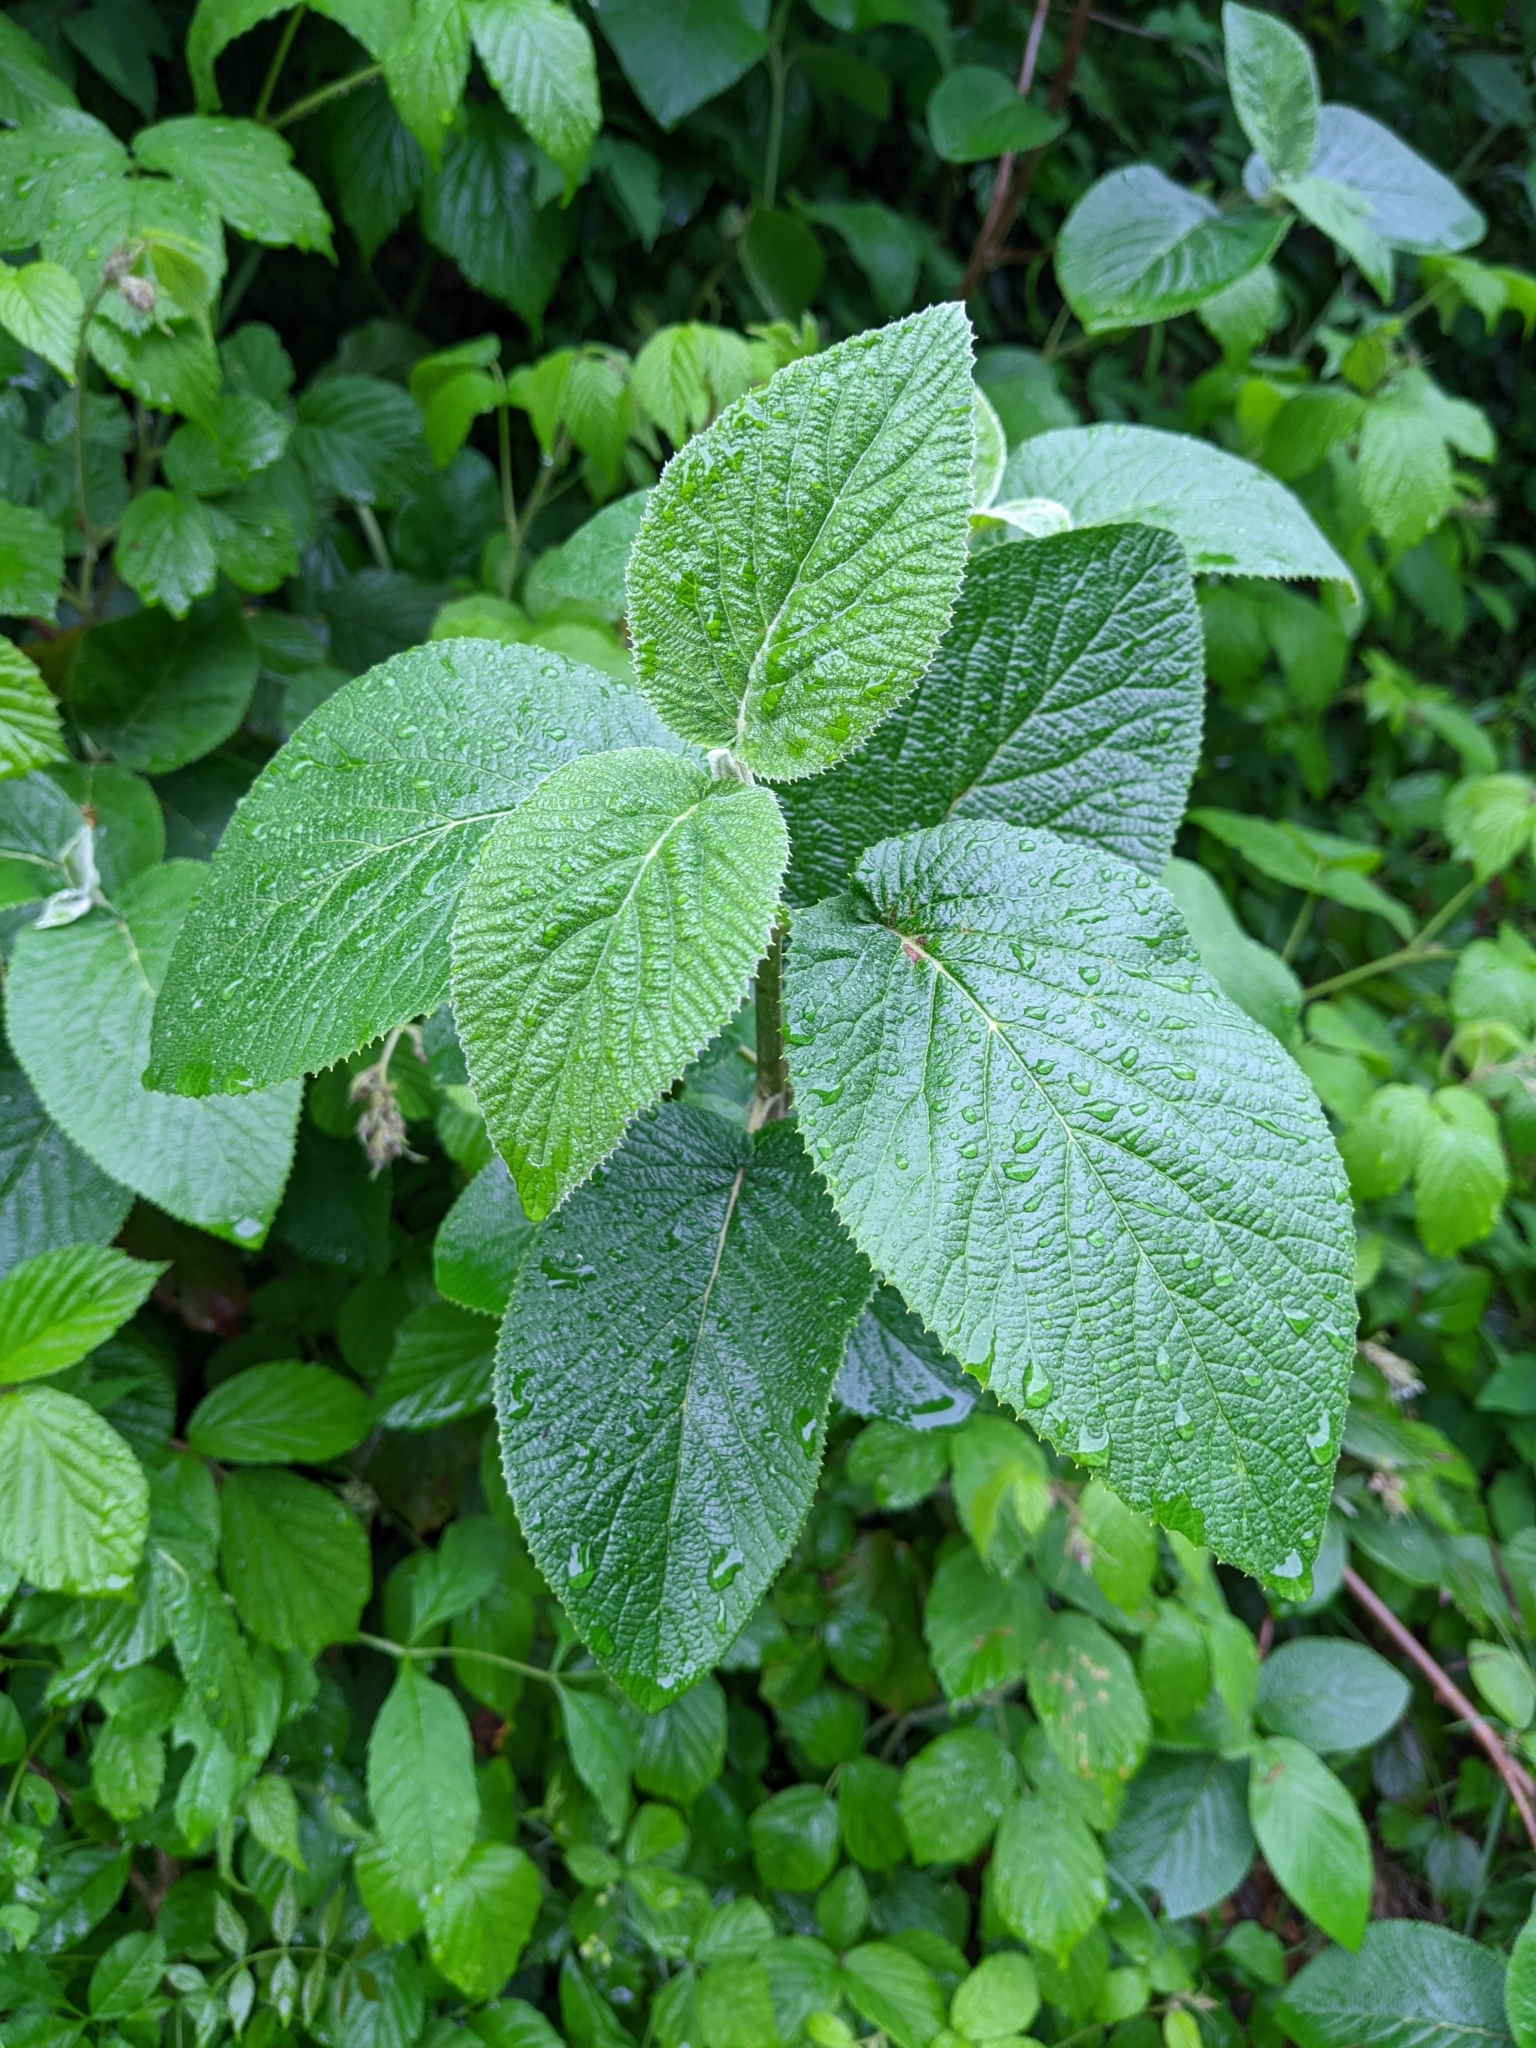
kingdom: Plantae
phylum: Tracheophyta
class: Magnoliopsida
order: Dipsacales
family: Viburnaceae
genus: Viburnum
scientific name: Viburnum lantana
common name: Wayfaring tree
